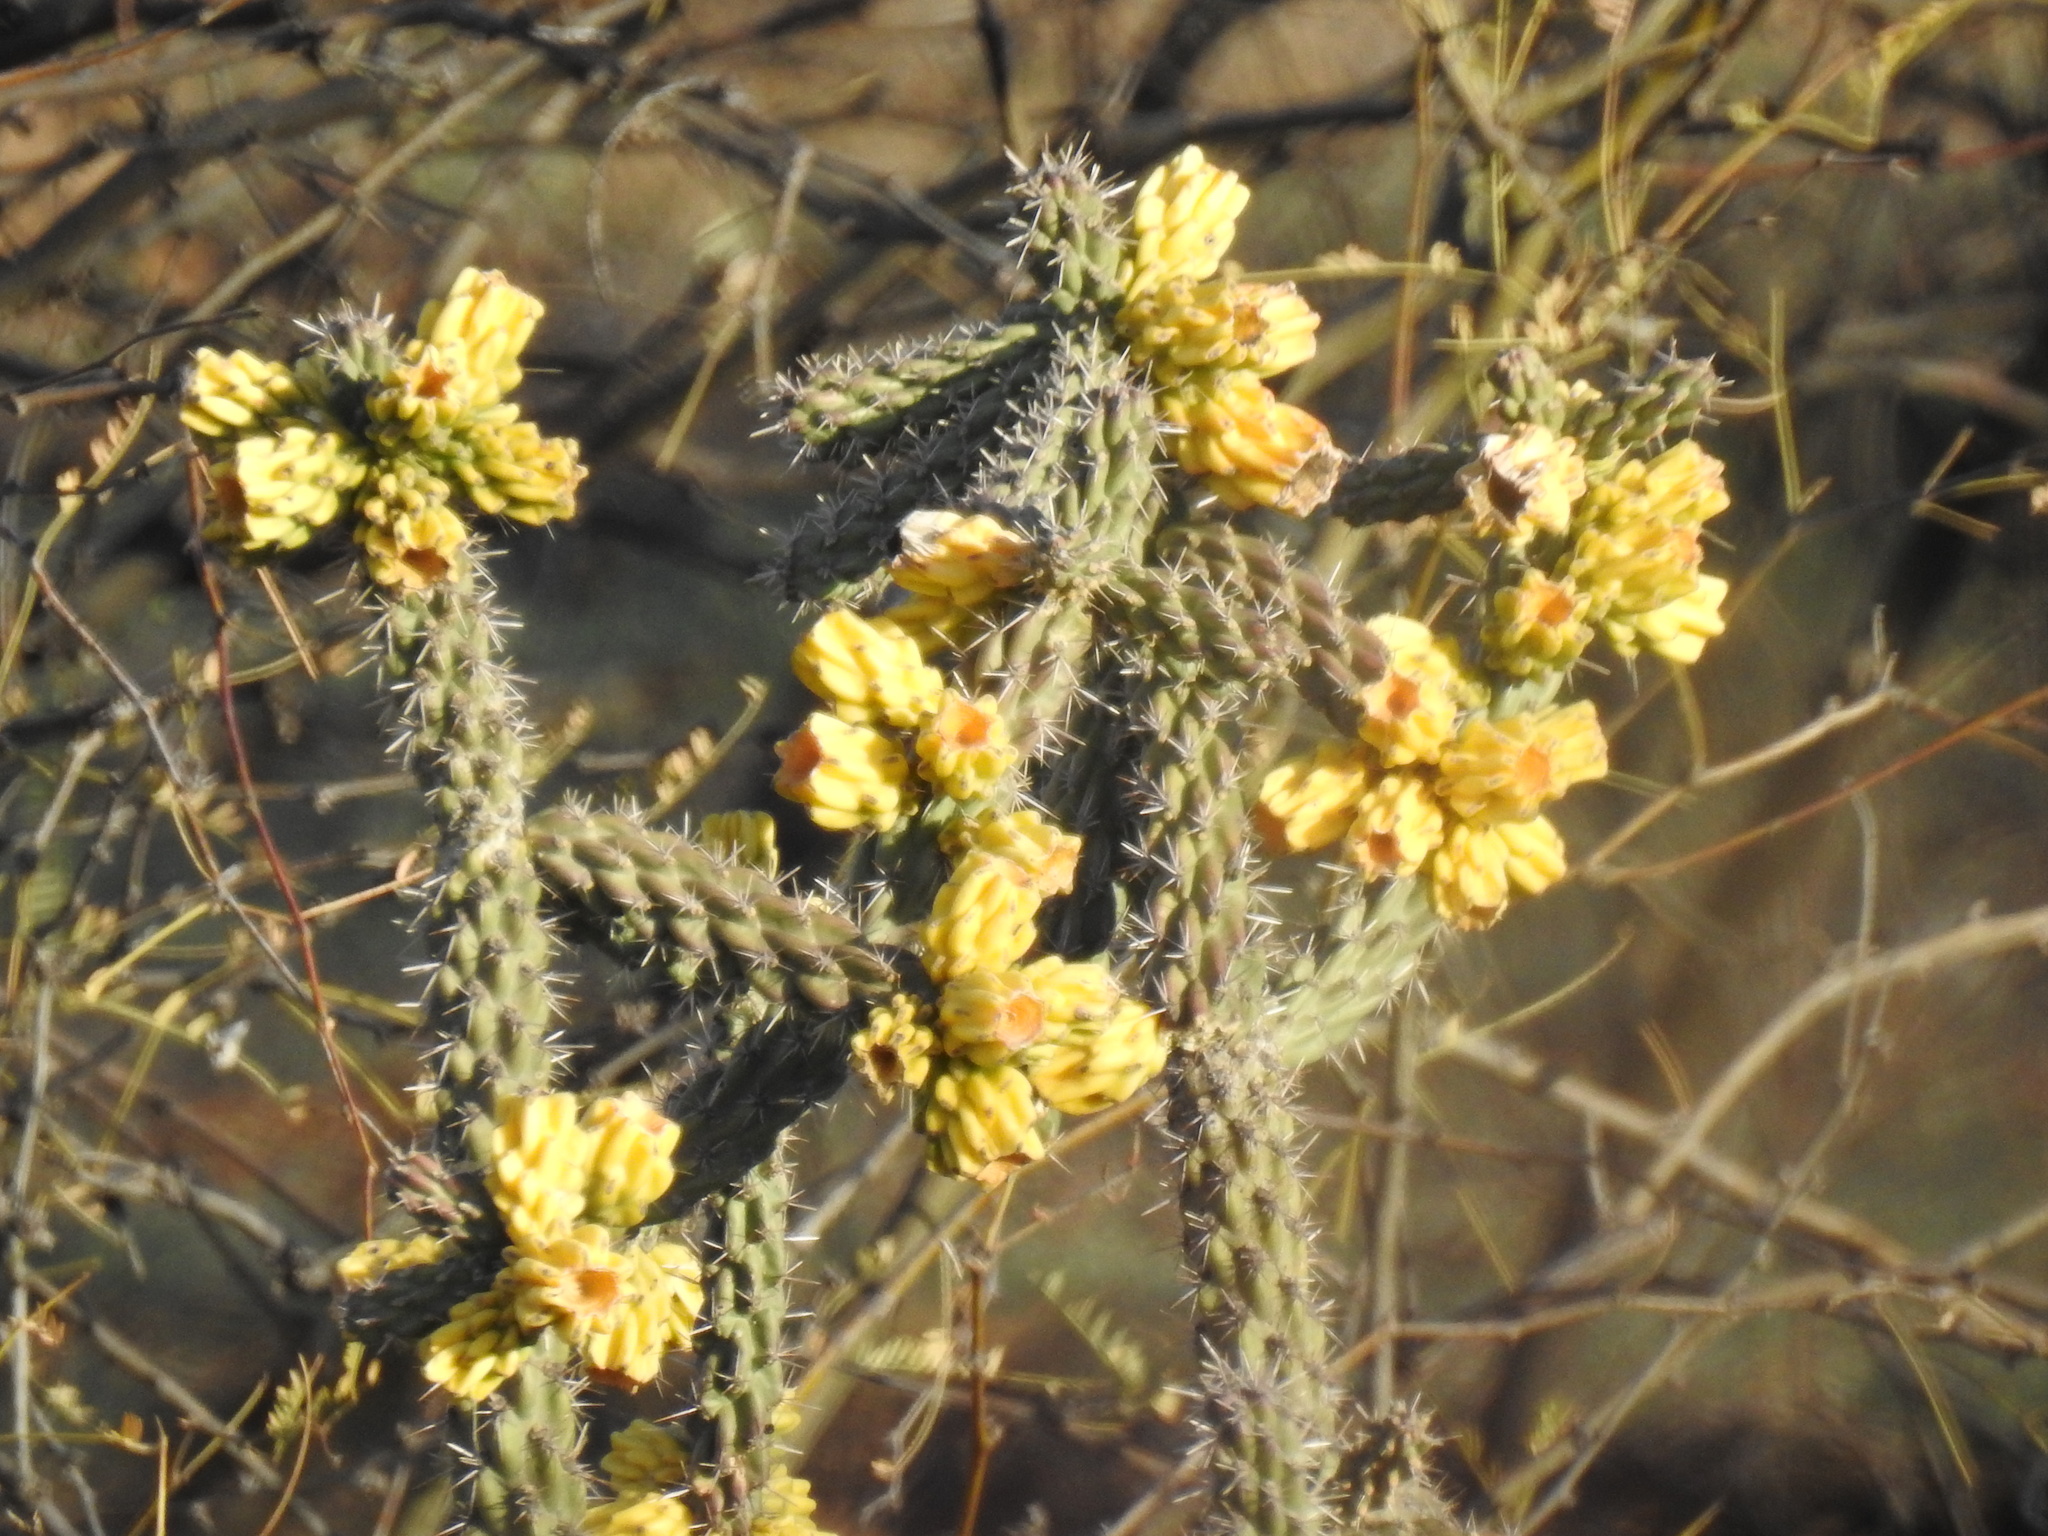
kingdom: Plantae
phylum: Tracheophyta
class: Magnoliopsida
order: Caryophyllales
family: Cactaceae
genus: Cylindropuntia
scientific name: Cylindropuntia imbricata
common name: Candelabrum cactus
